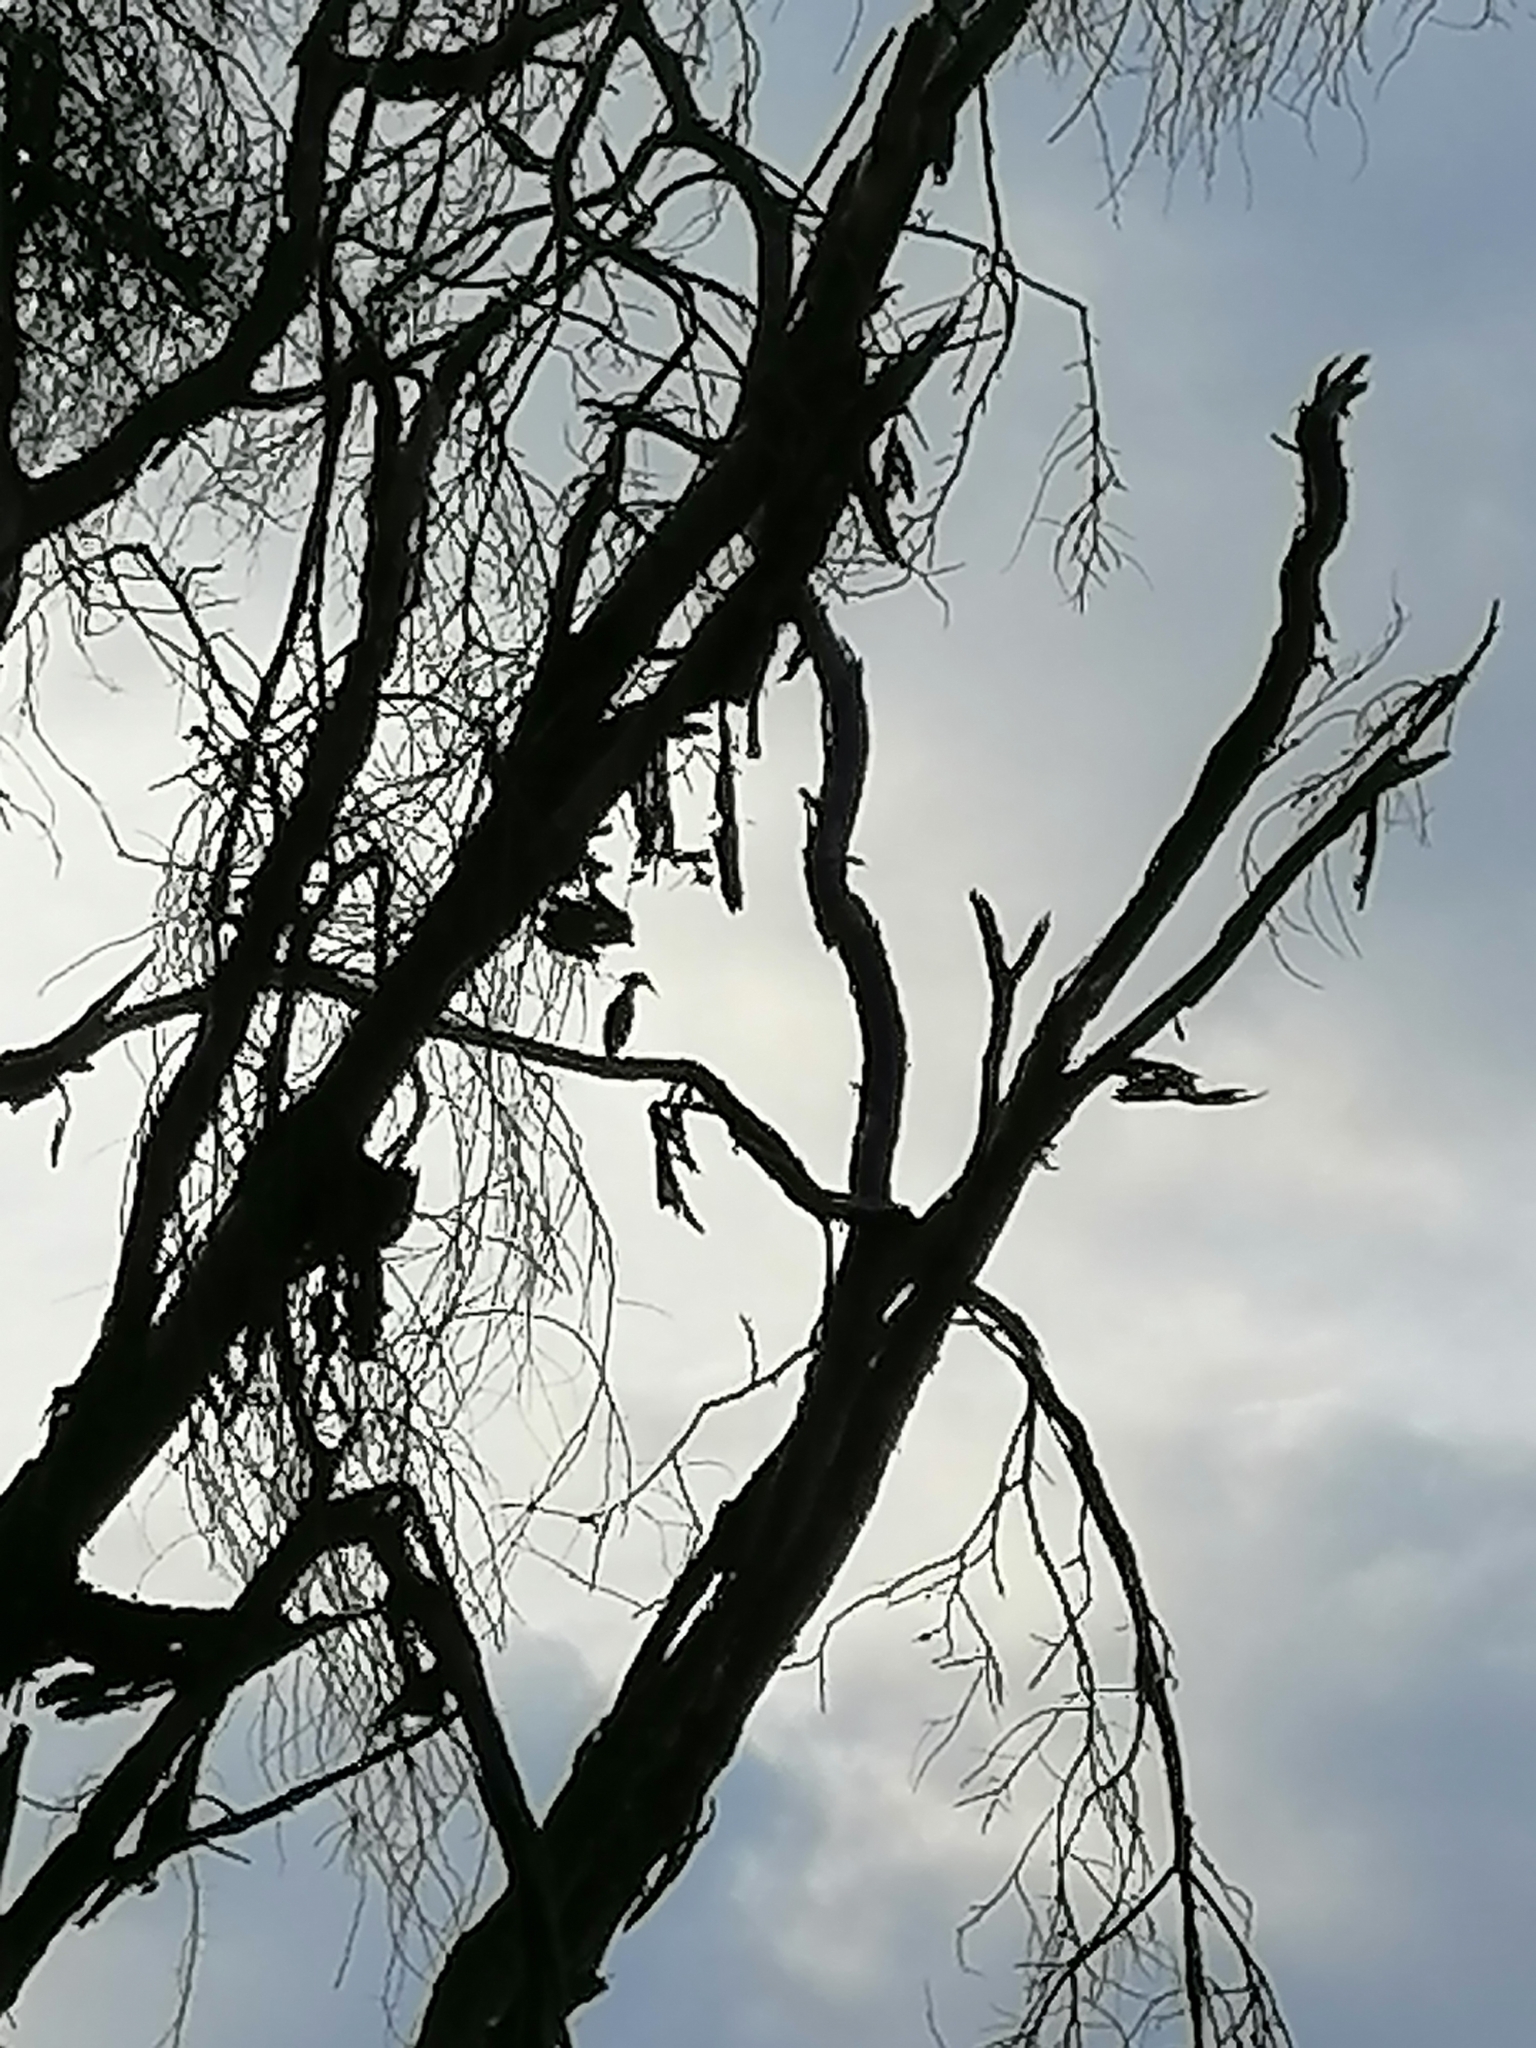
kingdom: Animalia
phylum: Chordata
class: Aves
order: Pelecaniformes
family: Scopidae
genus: Scopus
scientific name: Scopus umbretta
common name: Hamerkop
